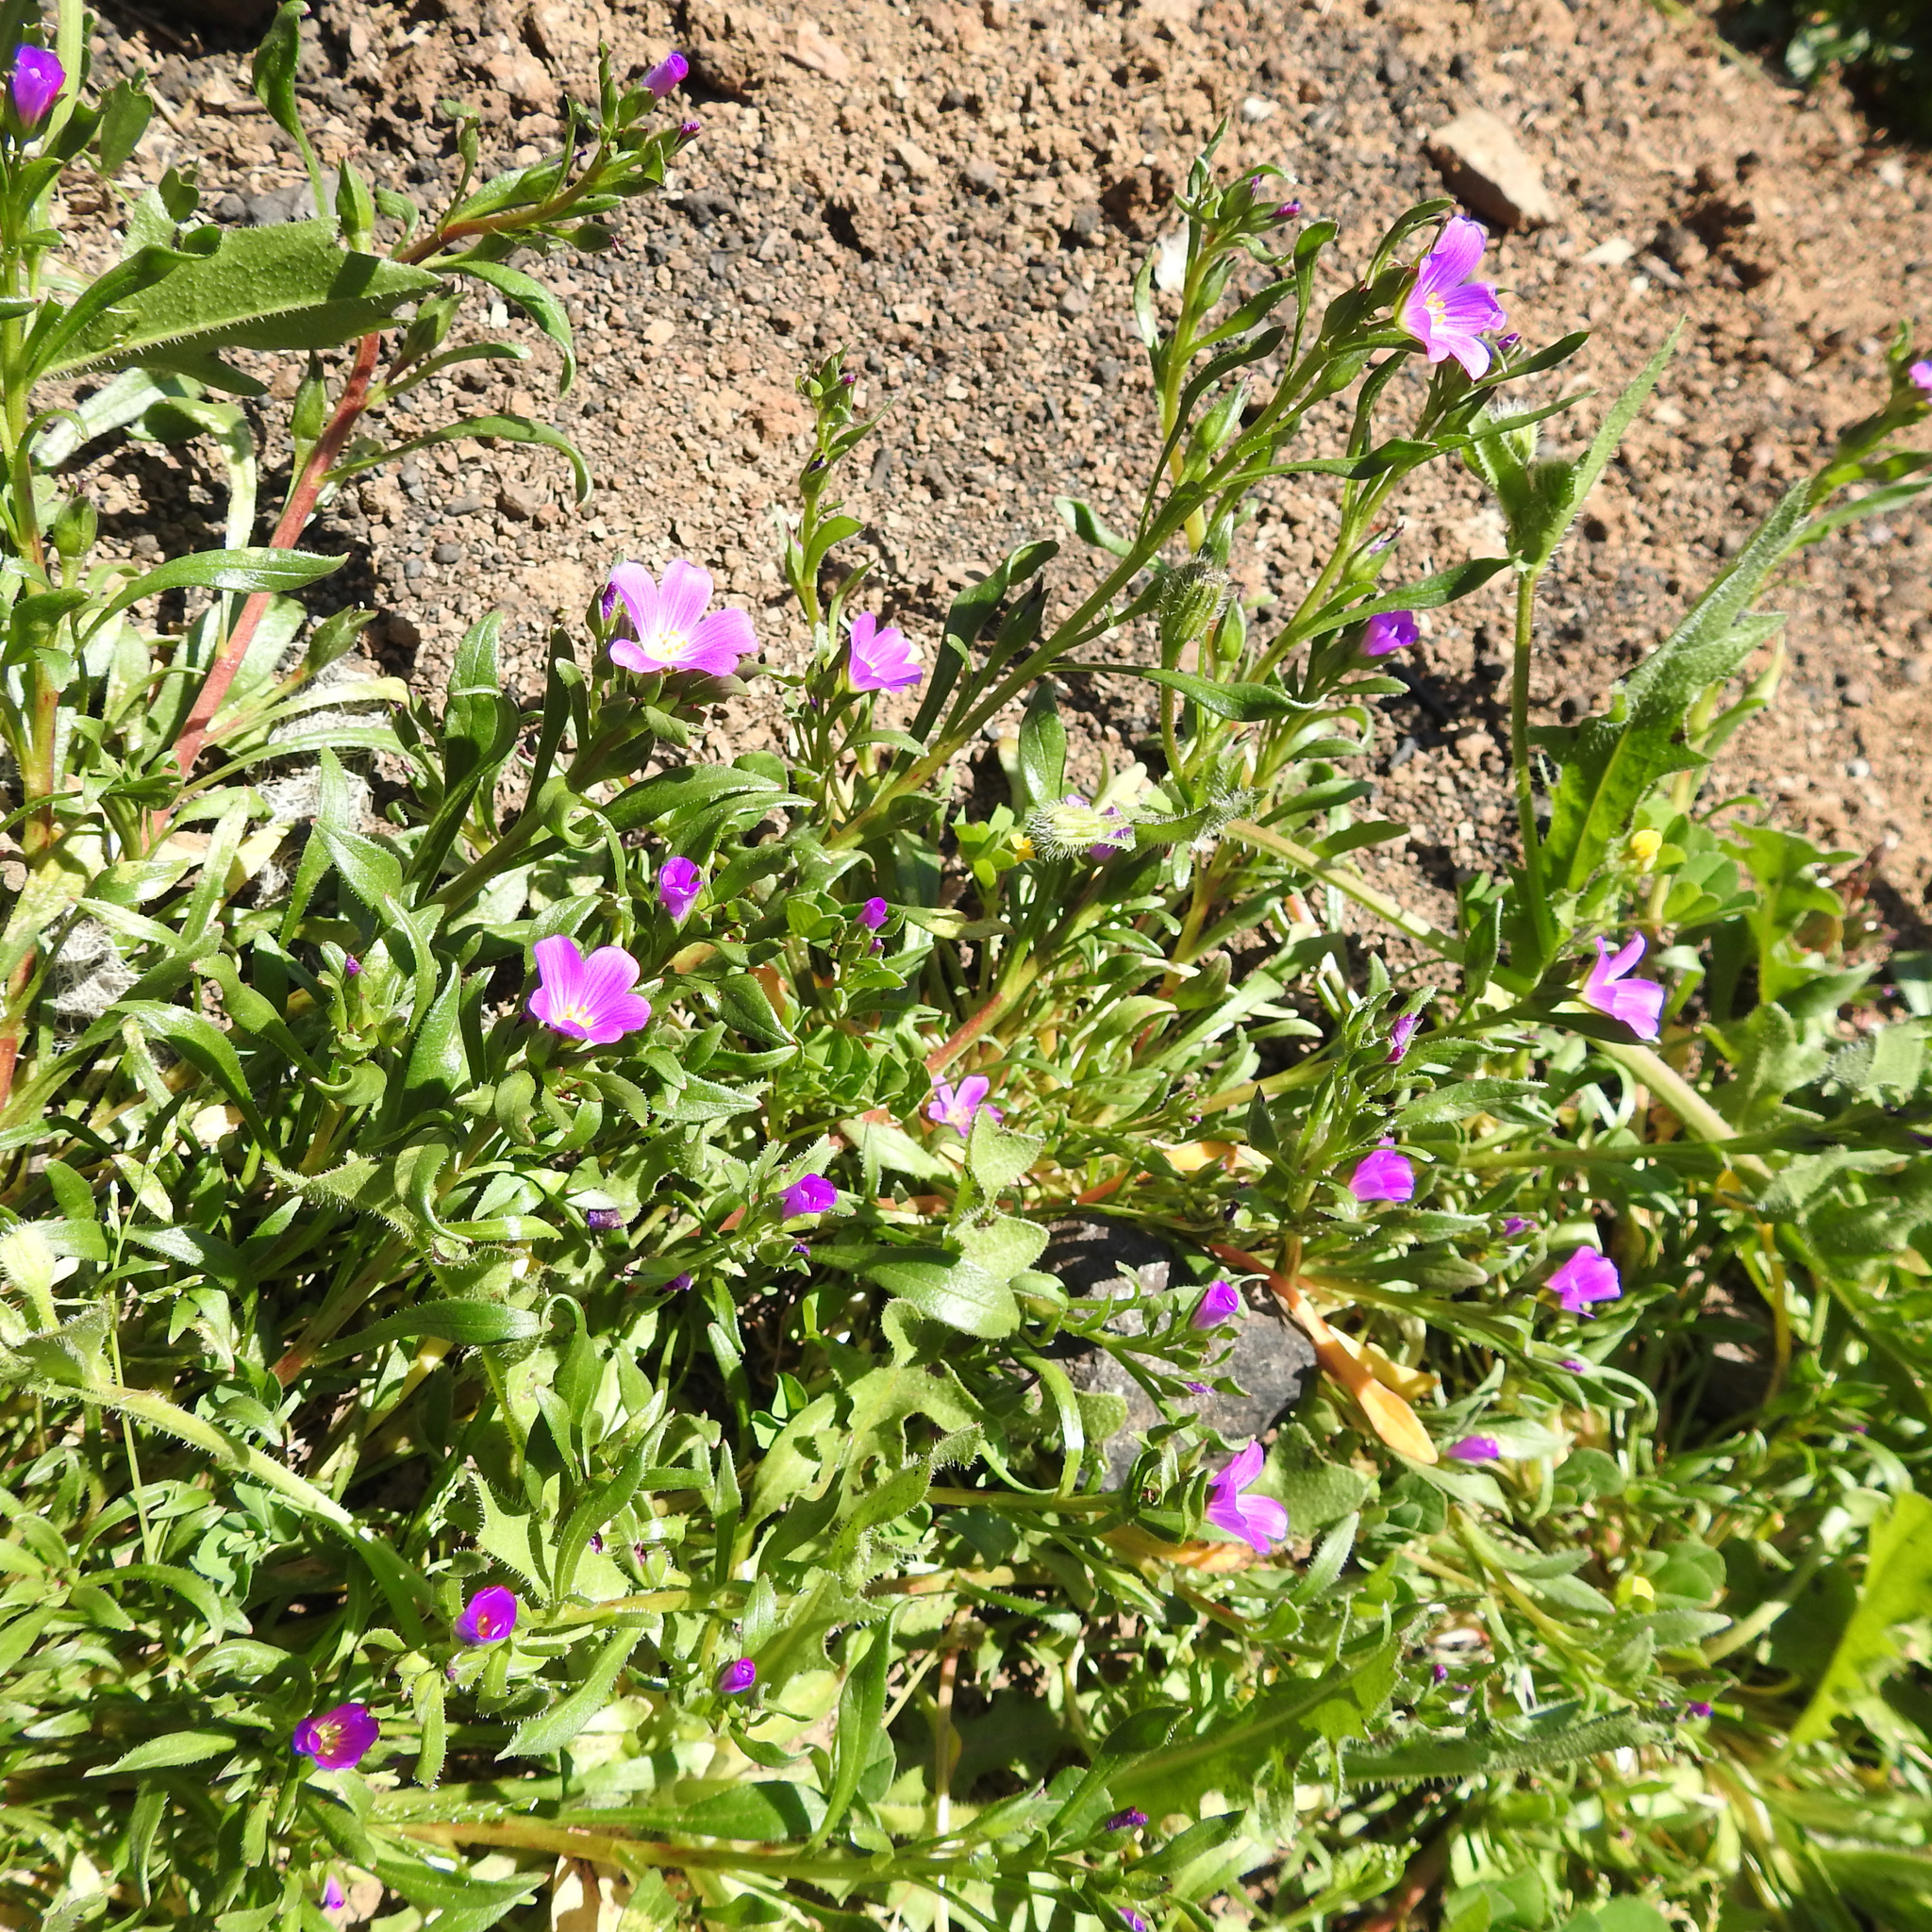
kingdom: Plantae
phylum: Tracheophyta
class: Magnoliopsida
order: Caryophyllales
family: Montiaceae
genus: Calandrinia
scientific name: Calandrinia menziesii
